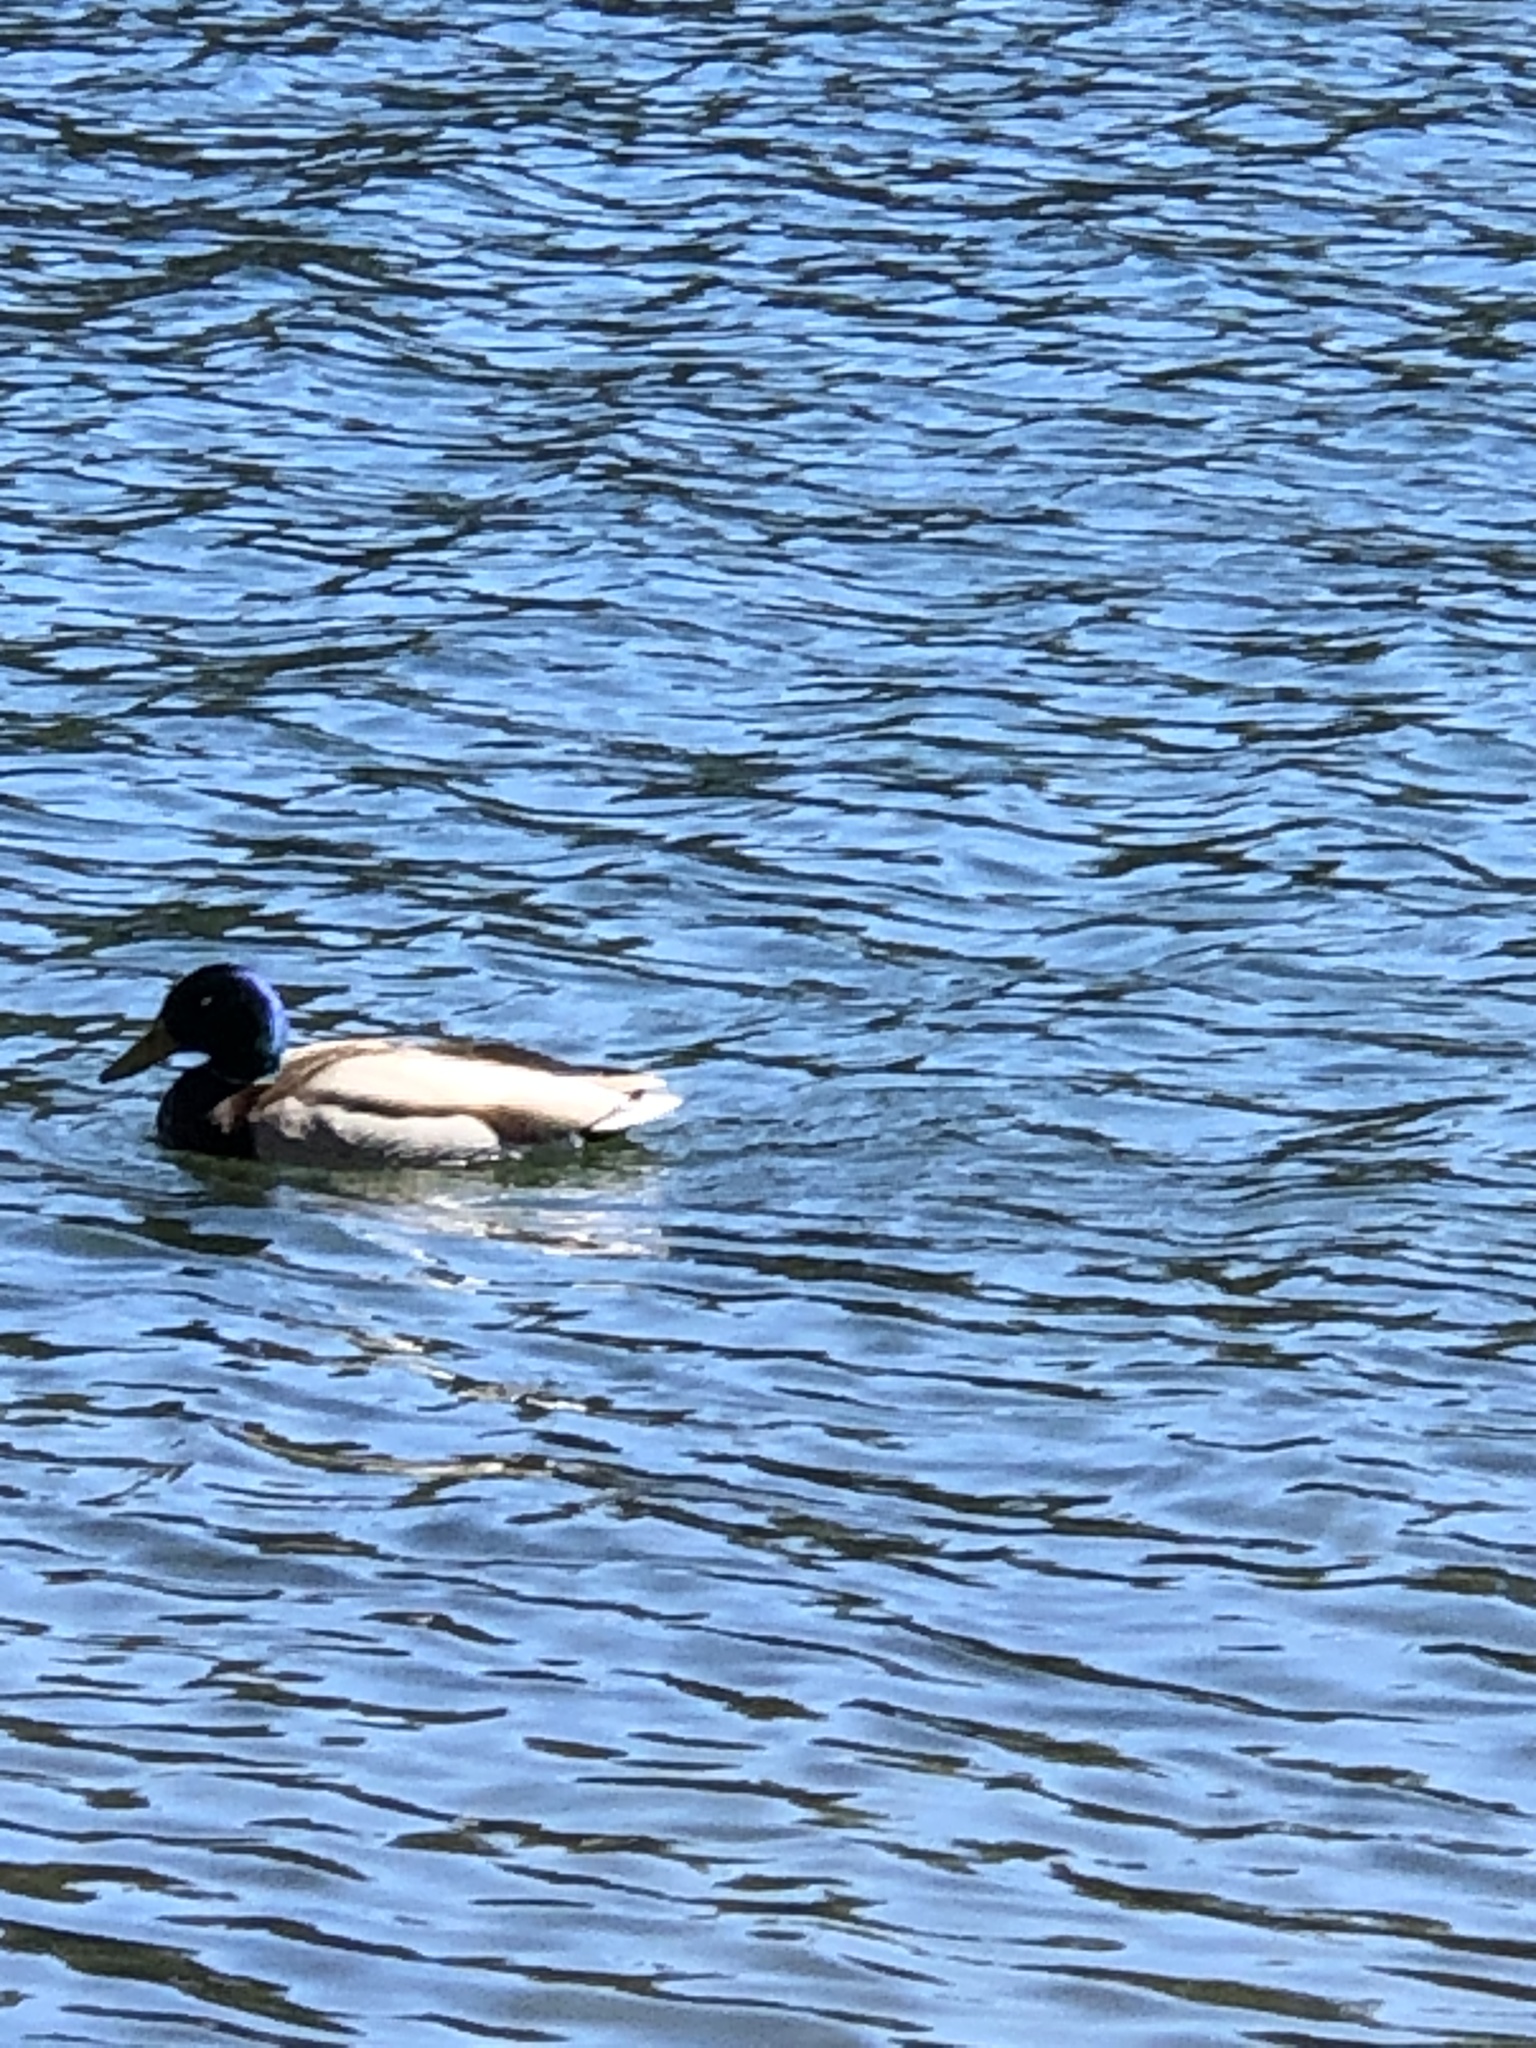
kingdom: Animalia
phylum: Chordata
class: Aves
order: Anseriformes
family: Anatidae
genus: Anas
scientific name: Anas platyrhynchos
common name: Mallard
